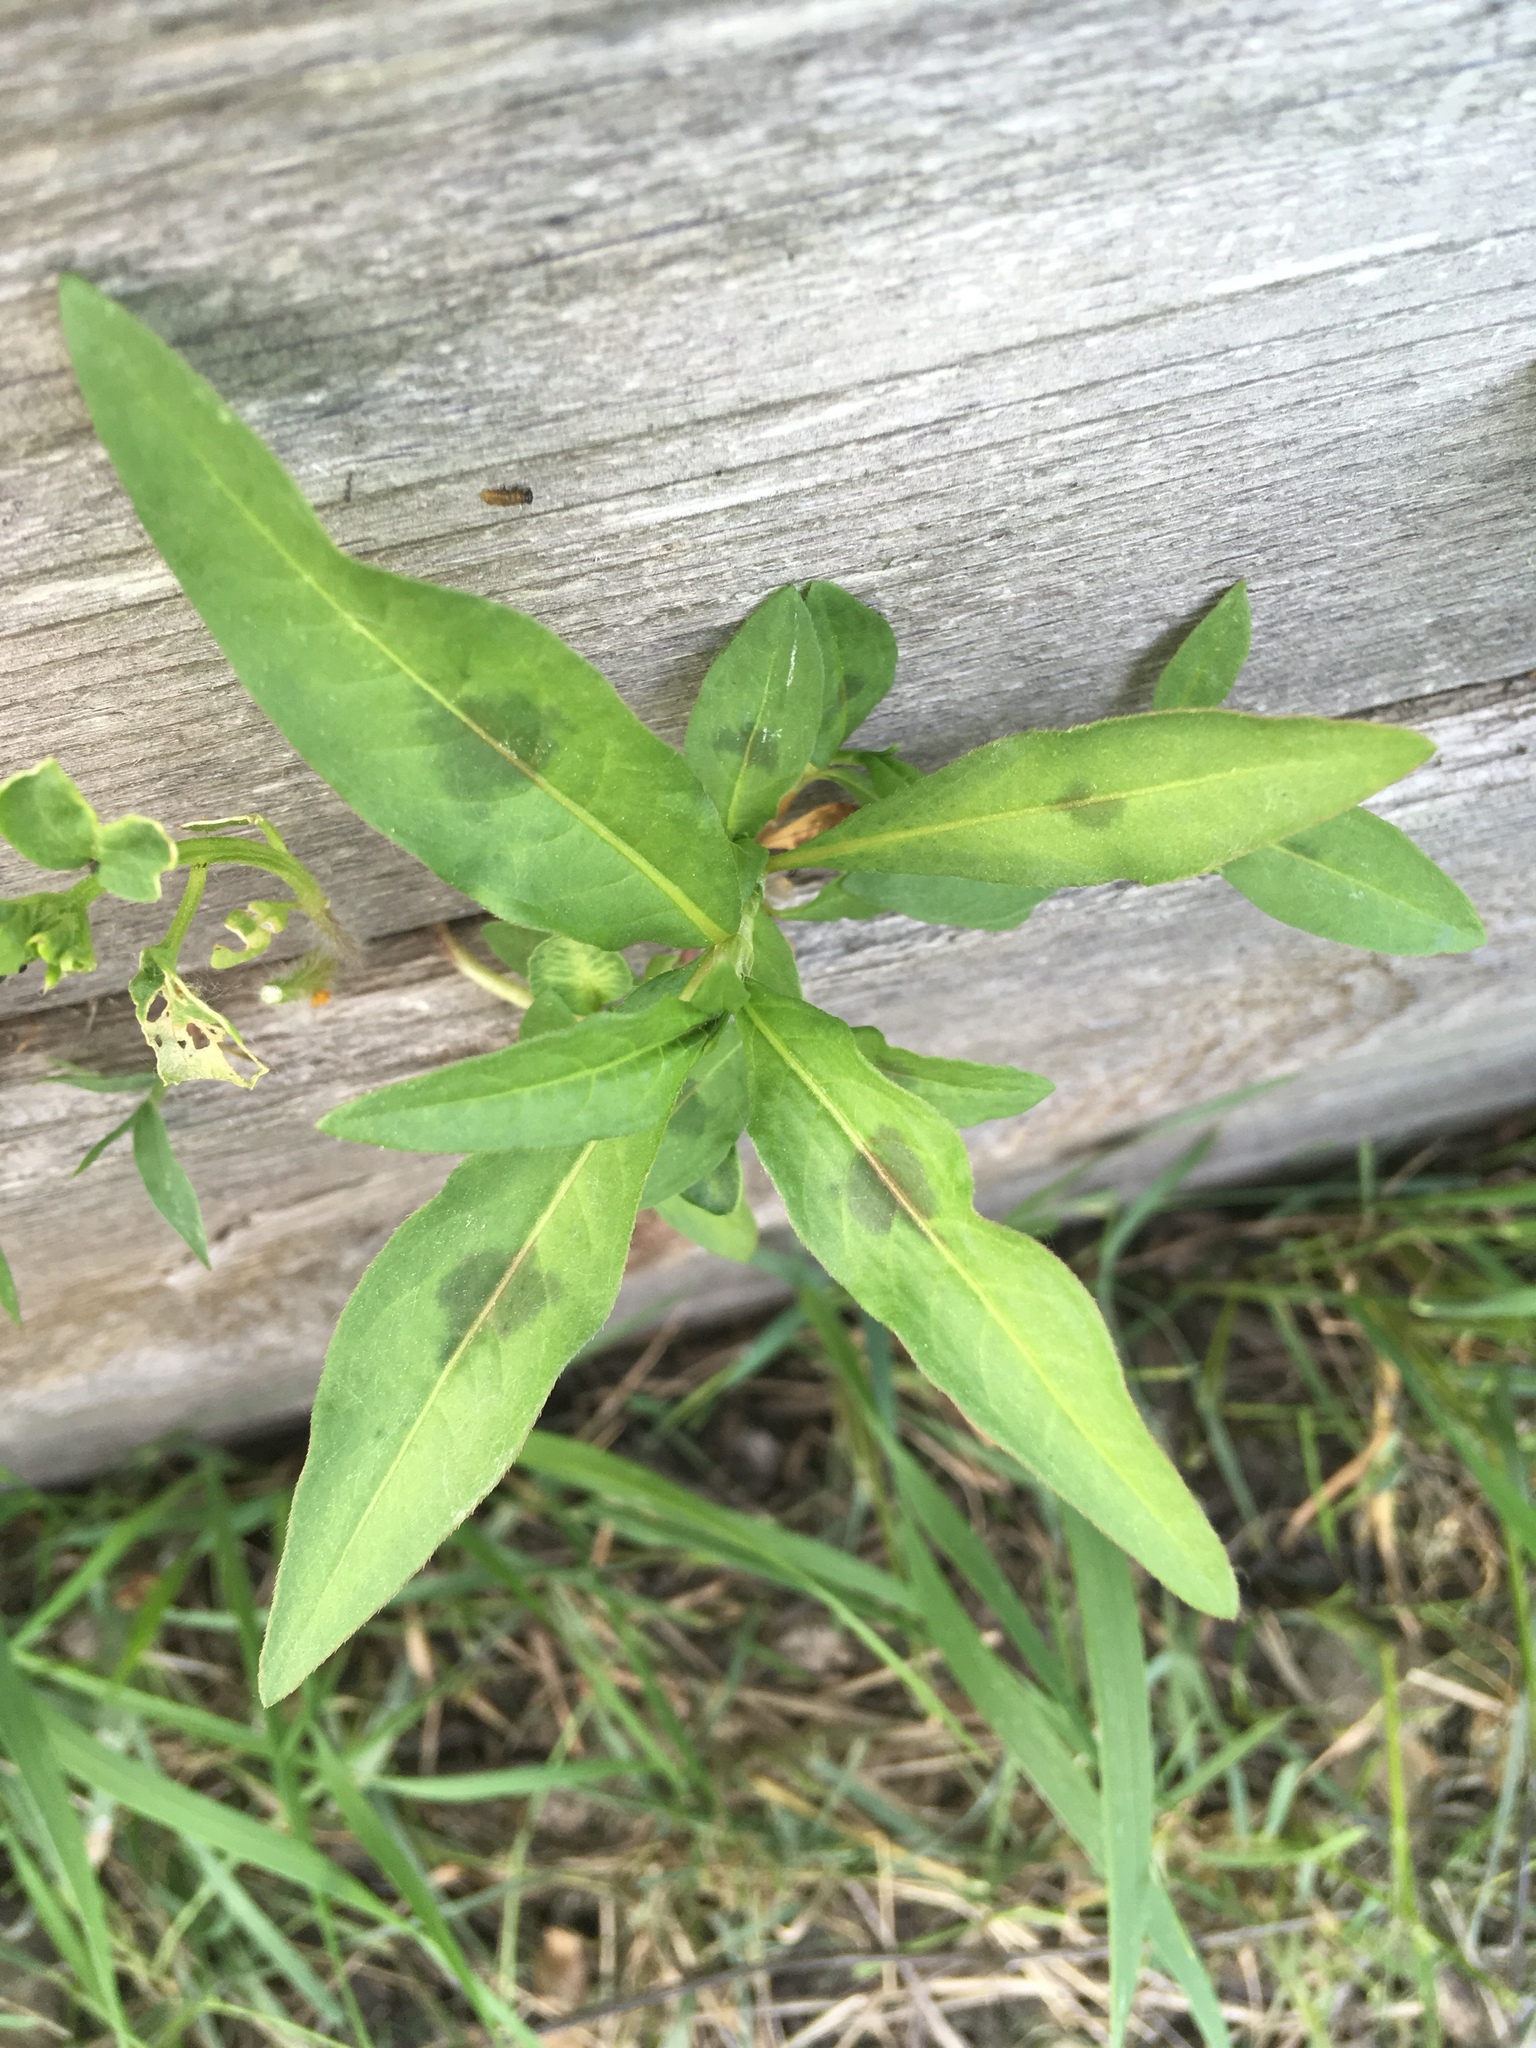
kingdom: Plantae
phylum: Tracheophyta
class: Magnoliopsida
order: Caryophyllales
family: Polygonaceae
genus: Persicaria
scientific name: Persicaria maculosa
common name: Redshank
